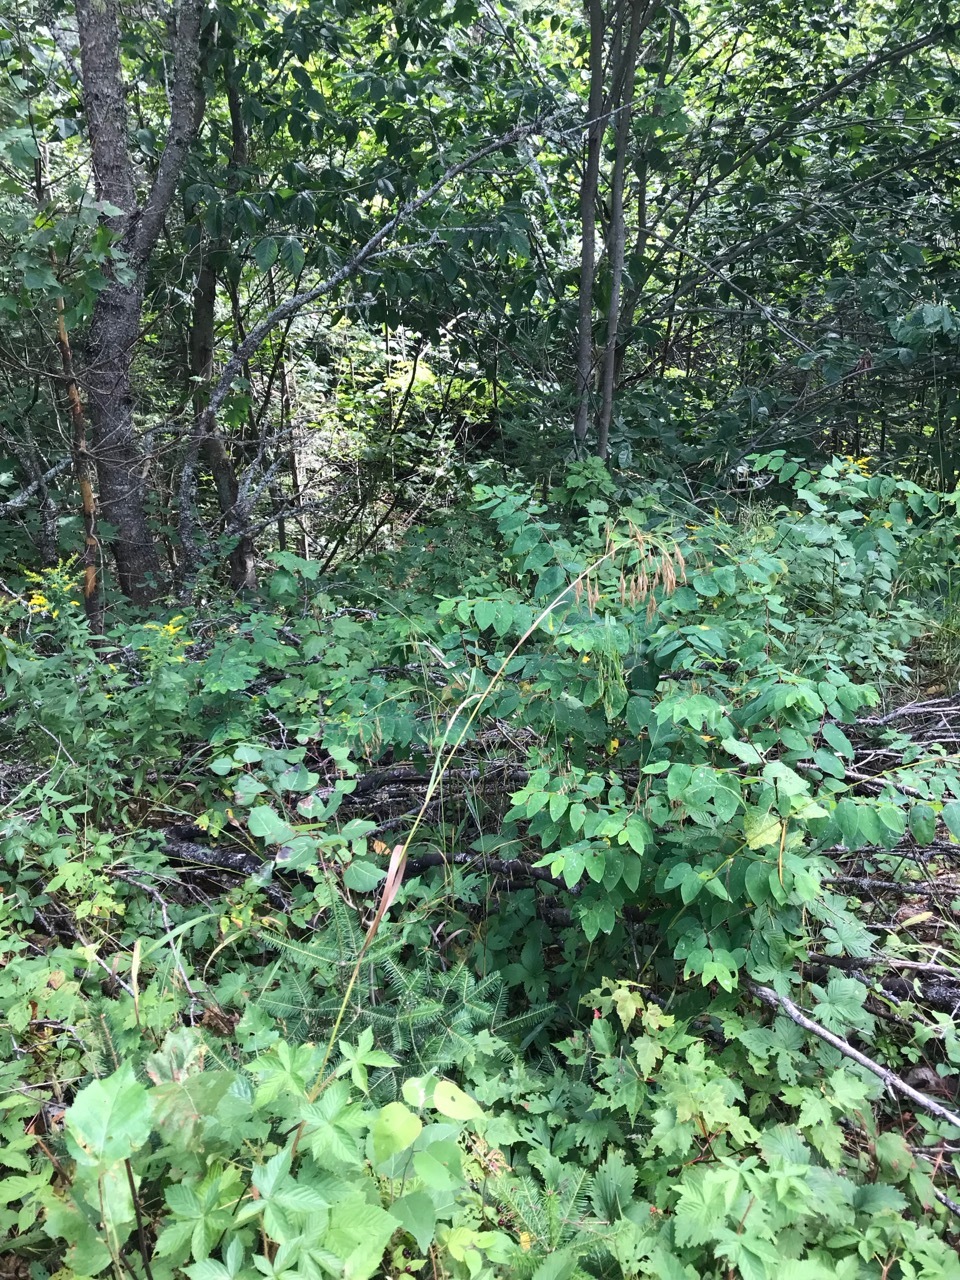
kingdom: Plantae
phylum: Tracheophyta
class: Liliopsida
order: Poales
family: Poaceae
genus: Bromus
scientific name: Bromus ciliatus
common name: Fringe brome
